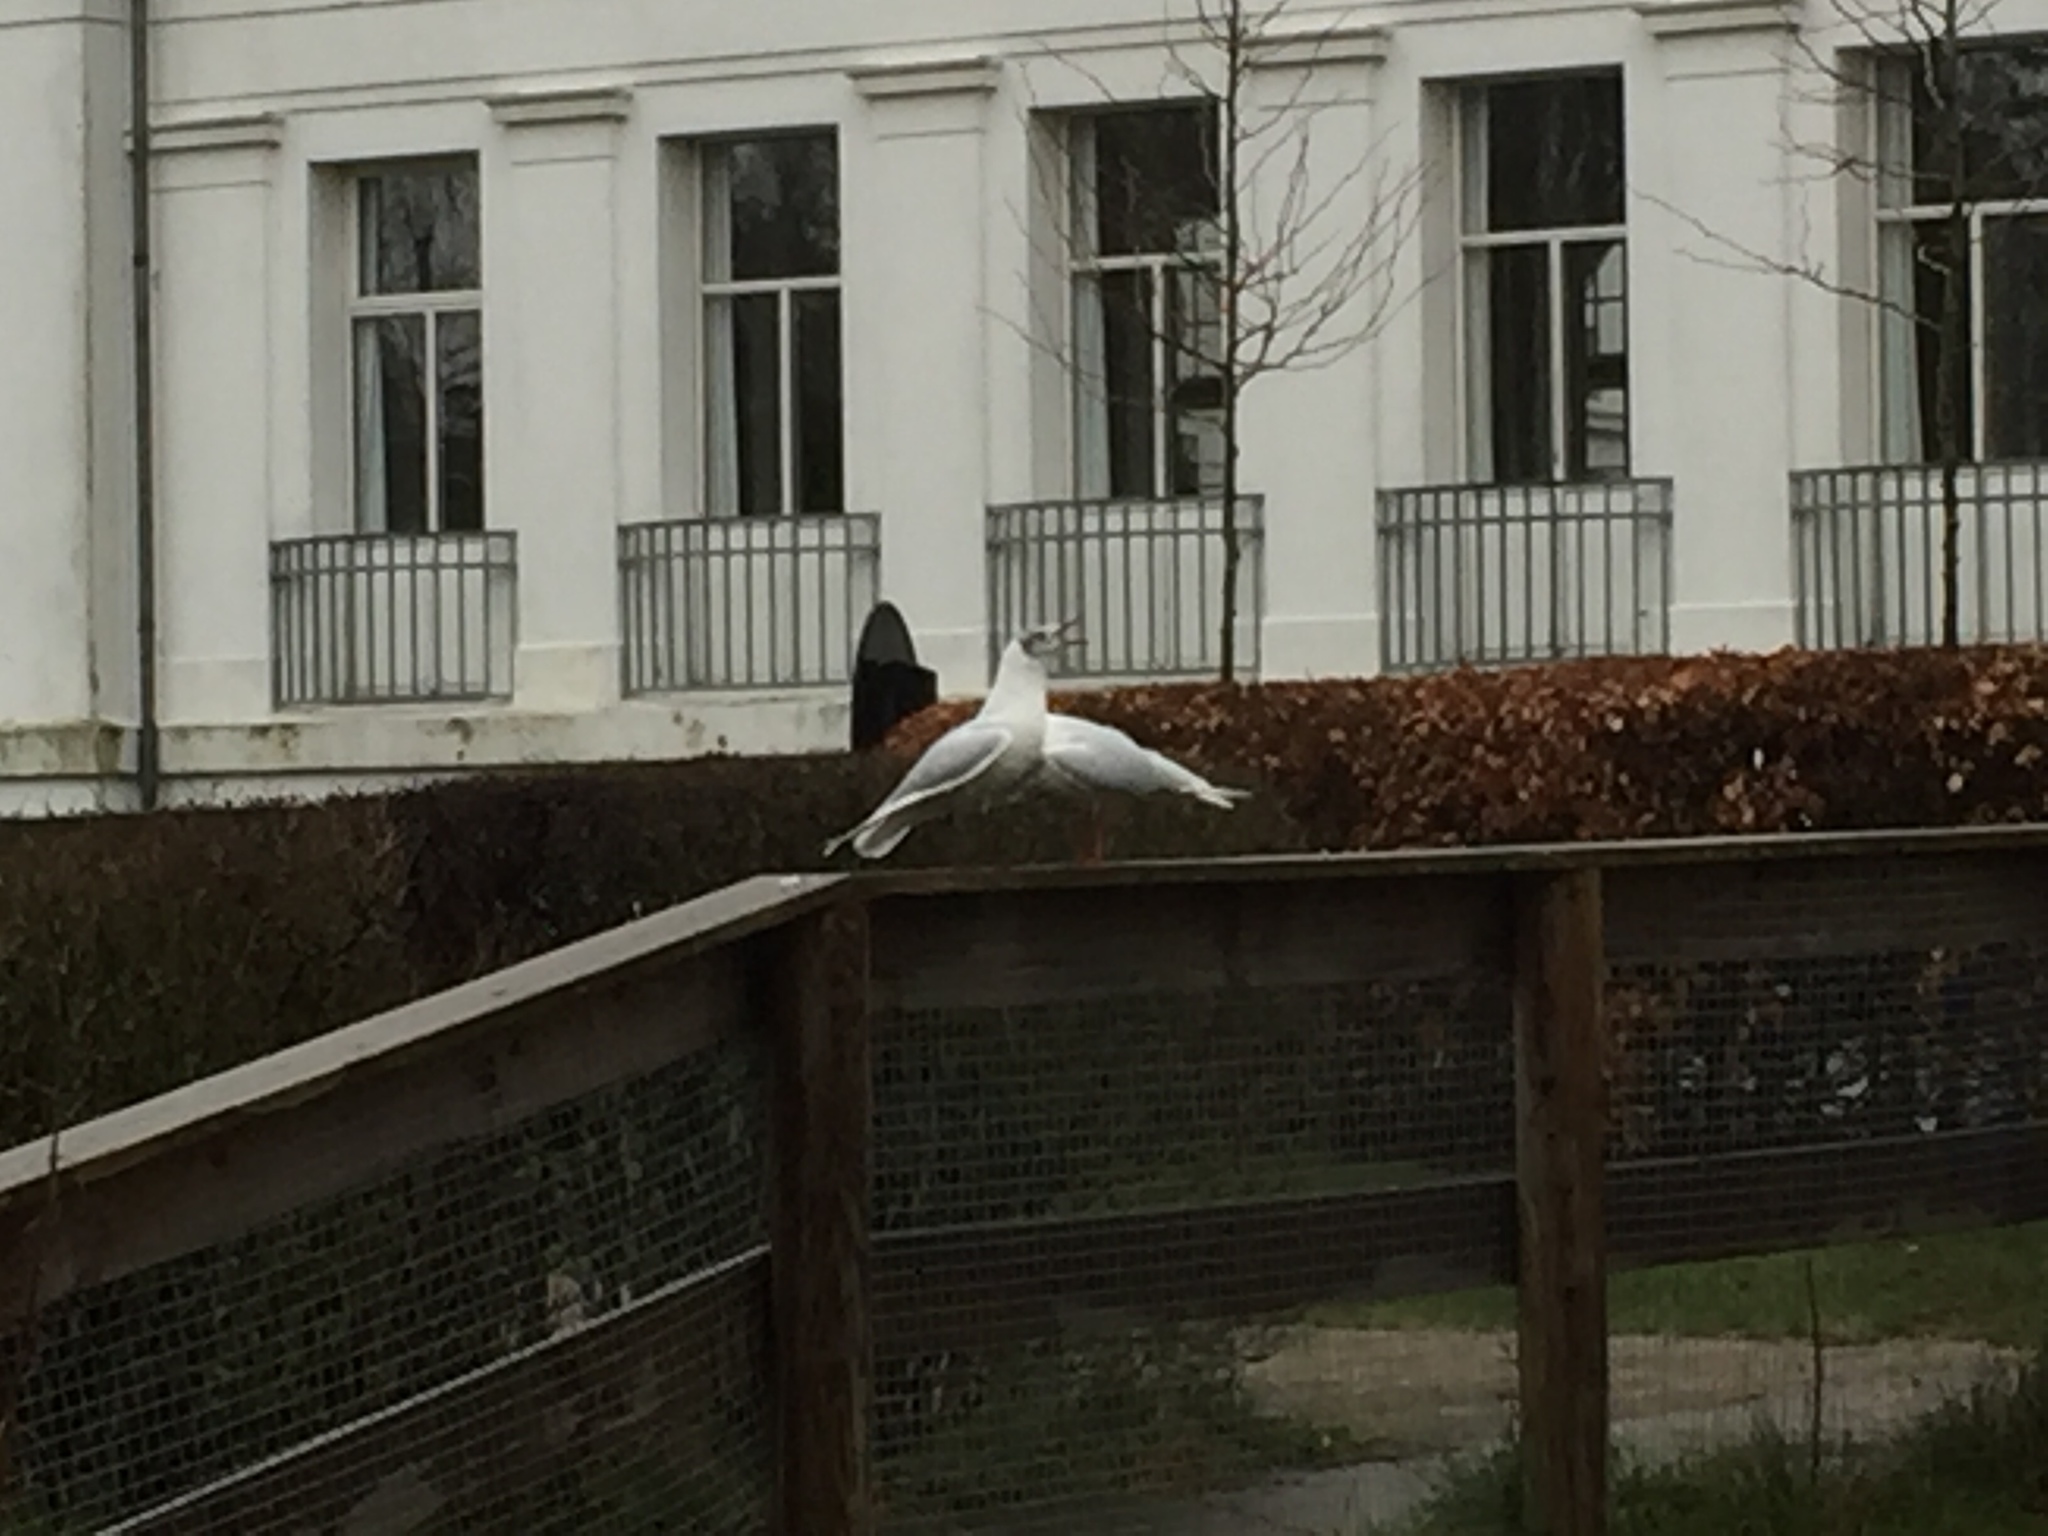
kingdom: Animalia
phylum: Chordata
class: Aves
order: Charadriiformes
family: Laridae
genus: Chroicocephalus
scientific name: Chroicocephalus ridibundus
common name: Black-headed gull
